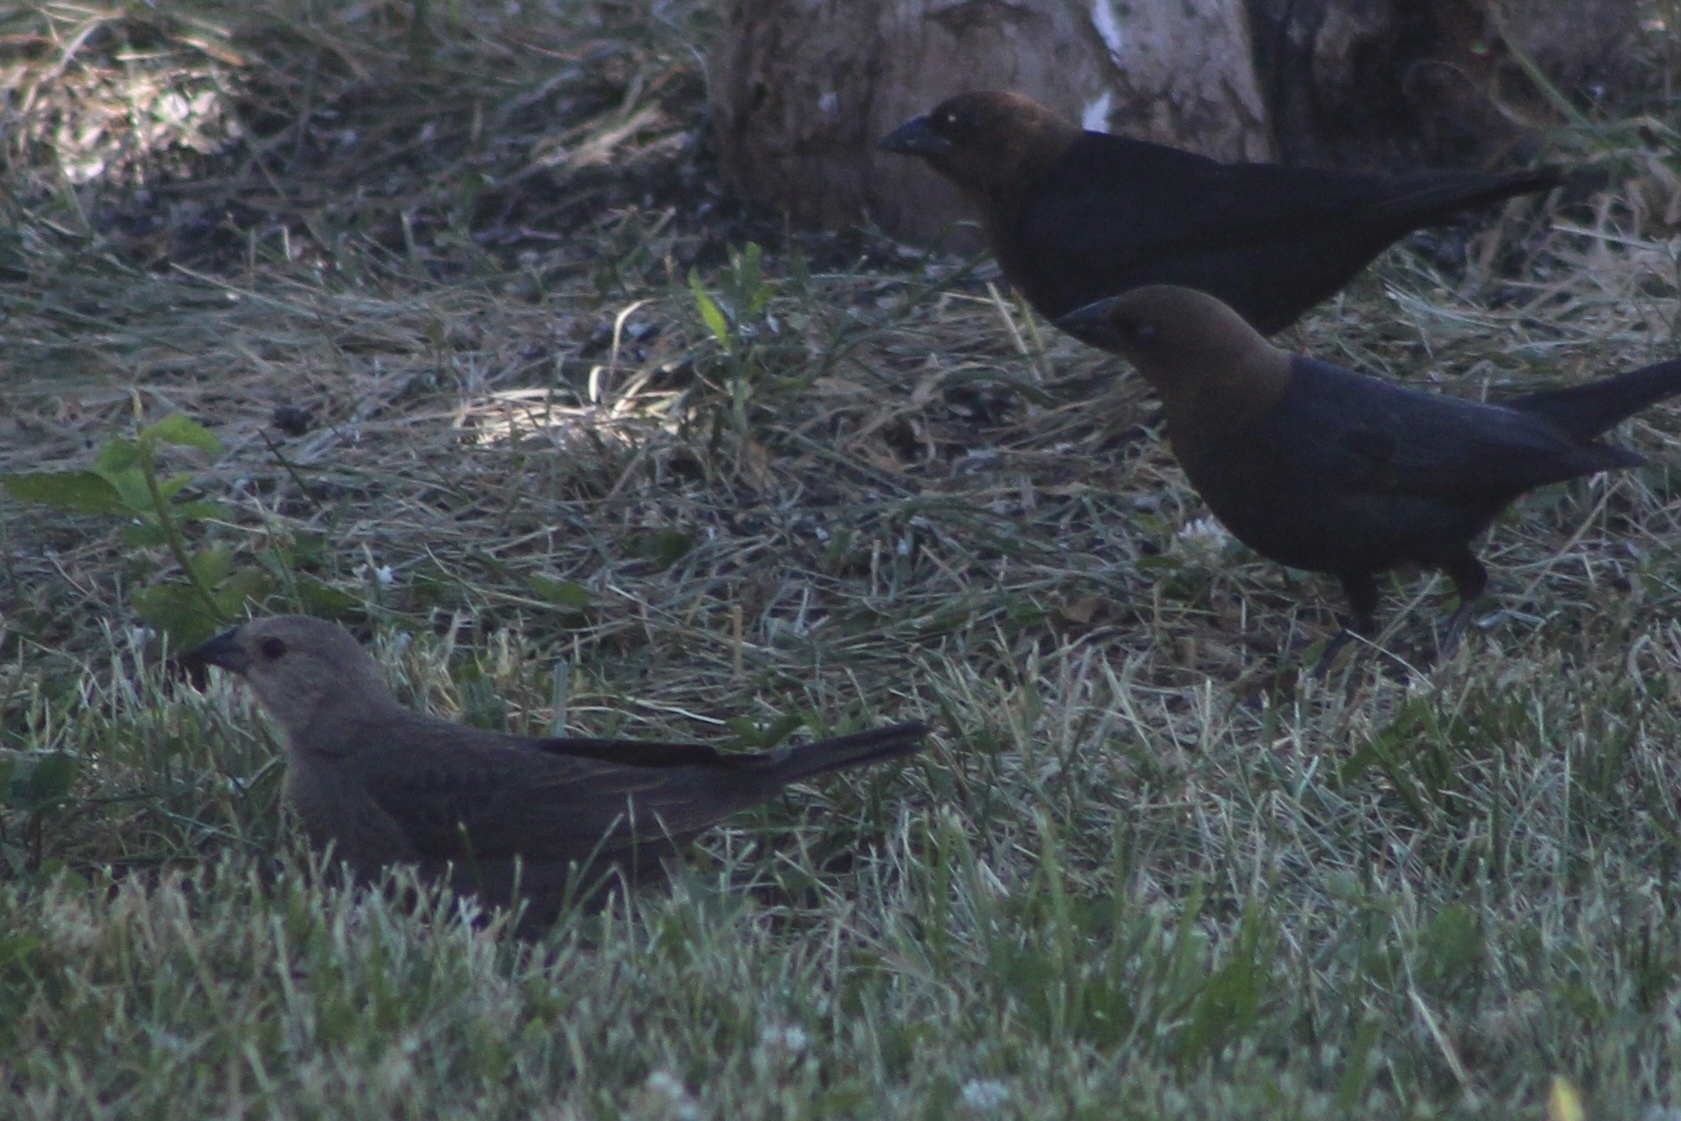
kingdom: Animalia
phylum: Chordata
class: Aves
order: Passeriformes
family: Icteridae
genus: Molothrus
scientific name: Molothrus ater
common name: Brown-headed cowbird
